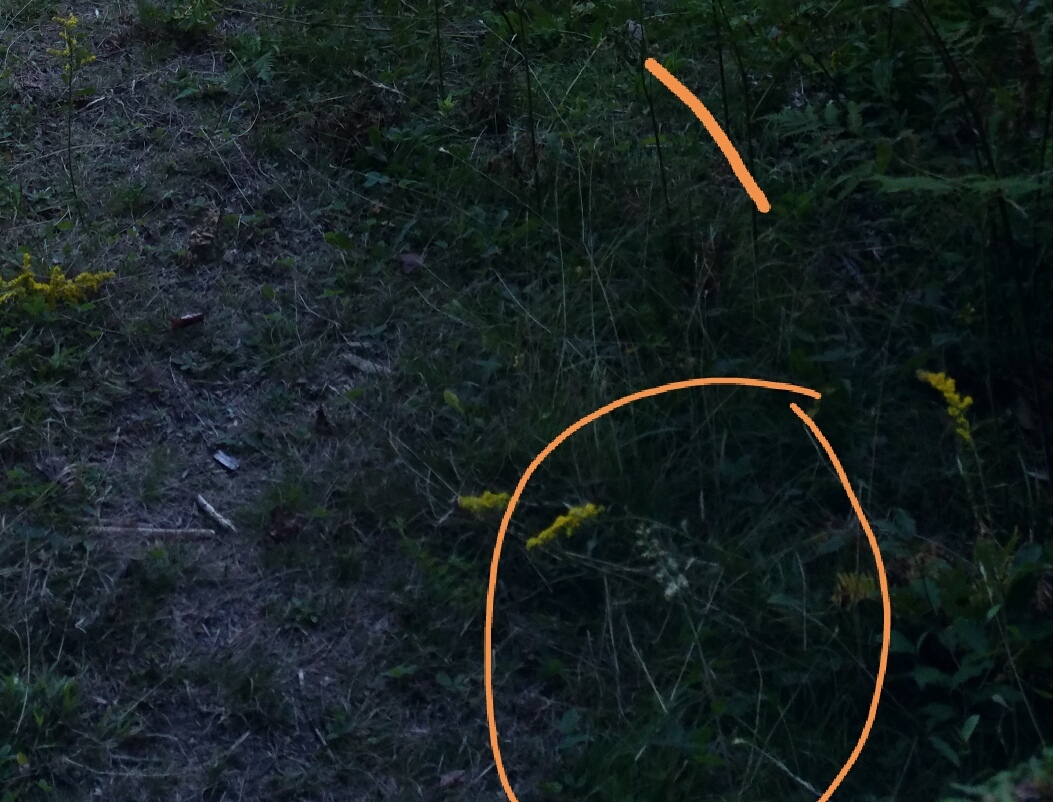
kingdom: Plantae
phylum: Tracheophyta
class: Magnoliopsida
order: Asterales
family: Asteraceae
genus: Solidago
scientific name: Solidago bicolor
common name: Silverrod
